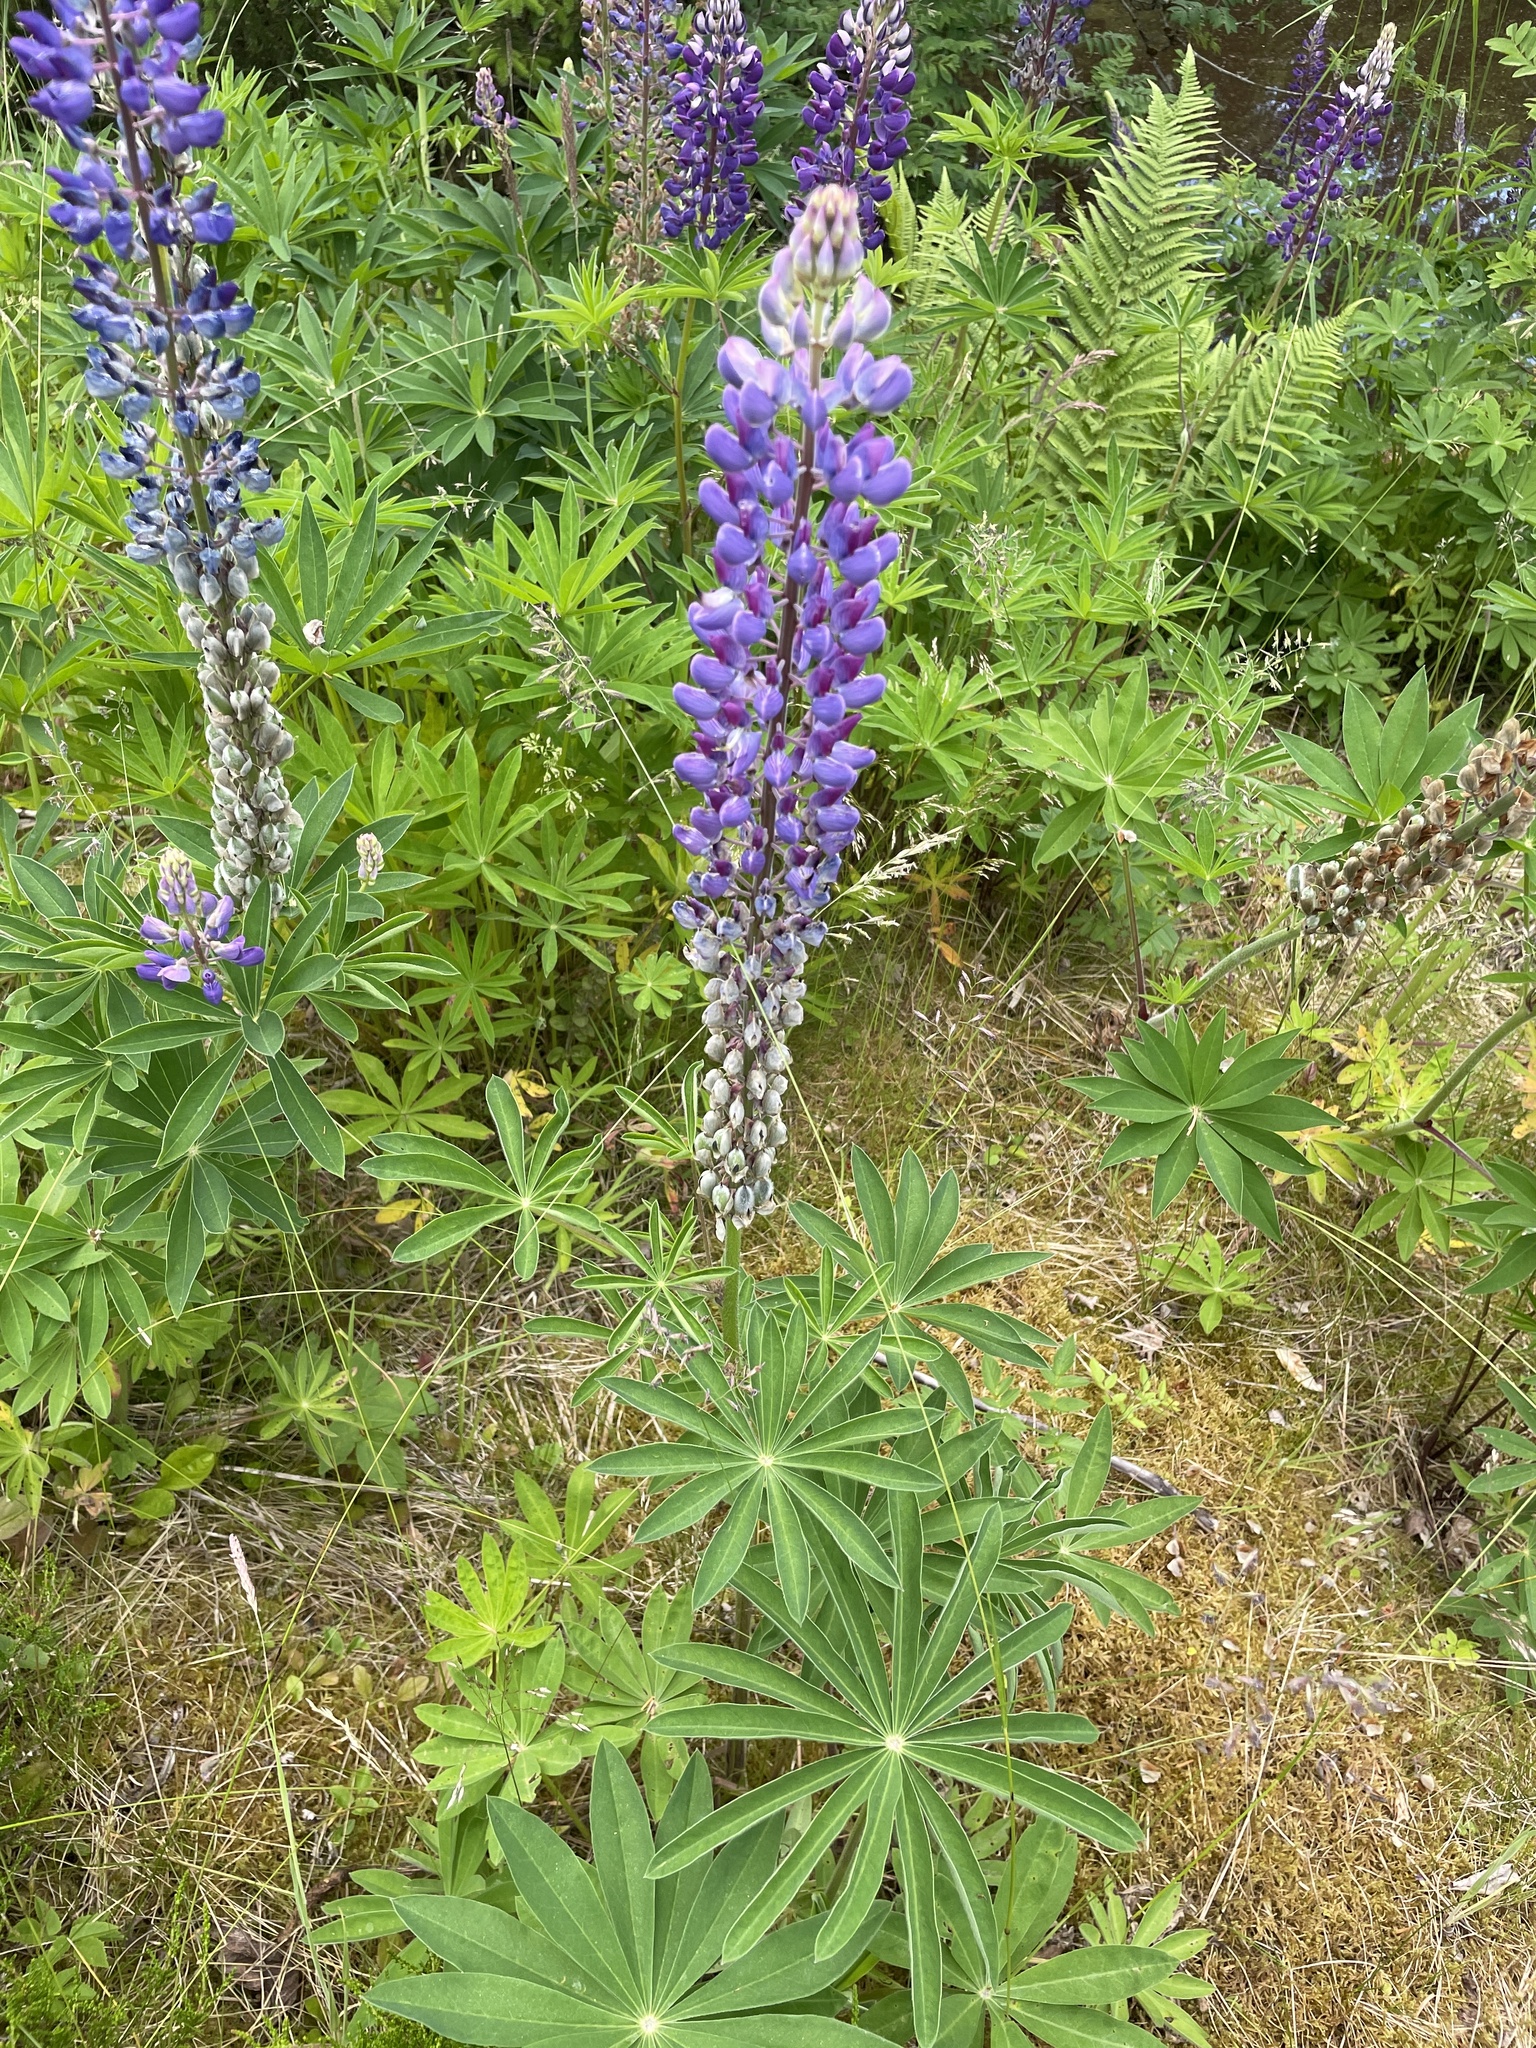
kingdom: Plantae
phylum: Tracheophyta
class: Magnoliopsida
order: Fabales
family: Fabaceae
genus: Lupinus
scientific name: Lupinus polyphyllus
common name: Garden lupin
